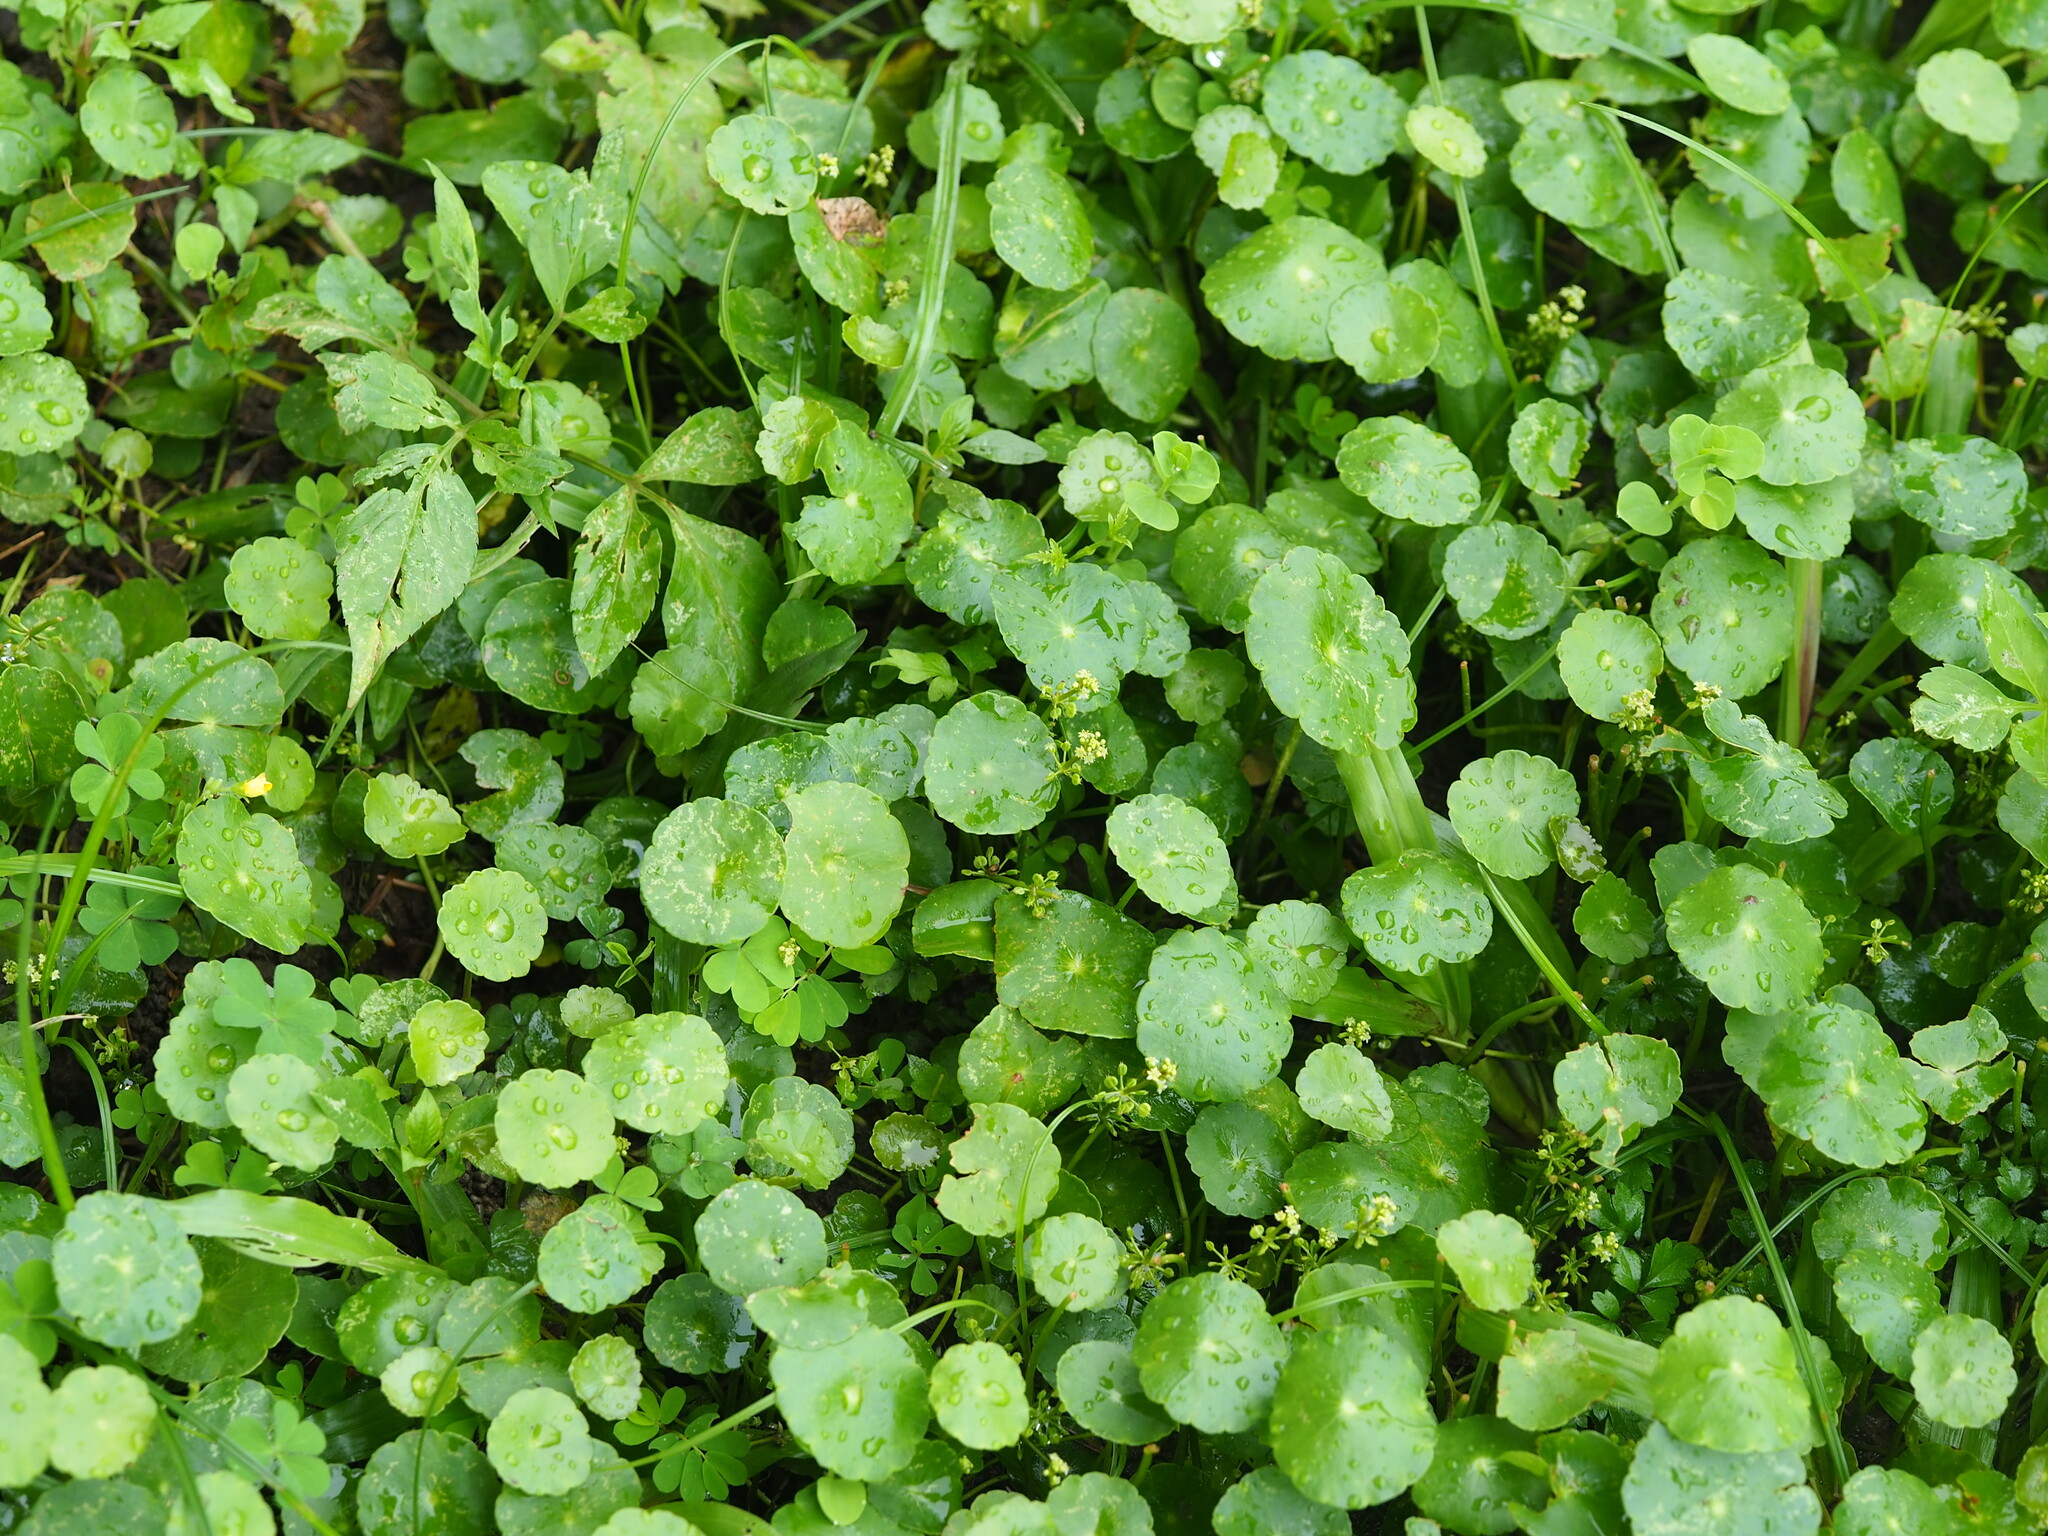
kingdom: Plantae
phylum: Tracheophyta
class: Magnoliopsida
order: Apiales
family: Araliaceae
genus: Hydrocotyle
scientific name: Hydrocotyle verticillata
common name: Whorled marshpennywort
